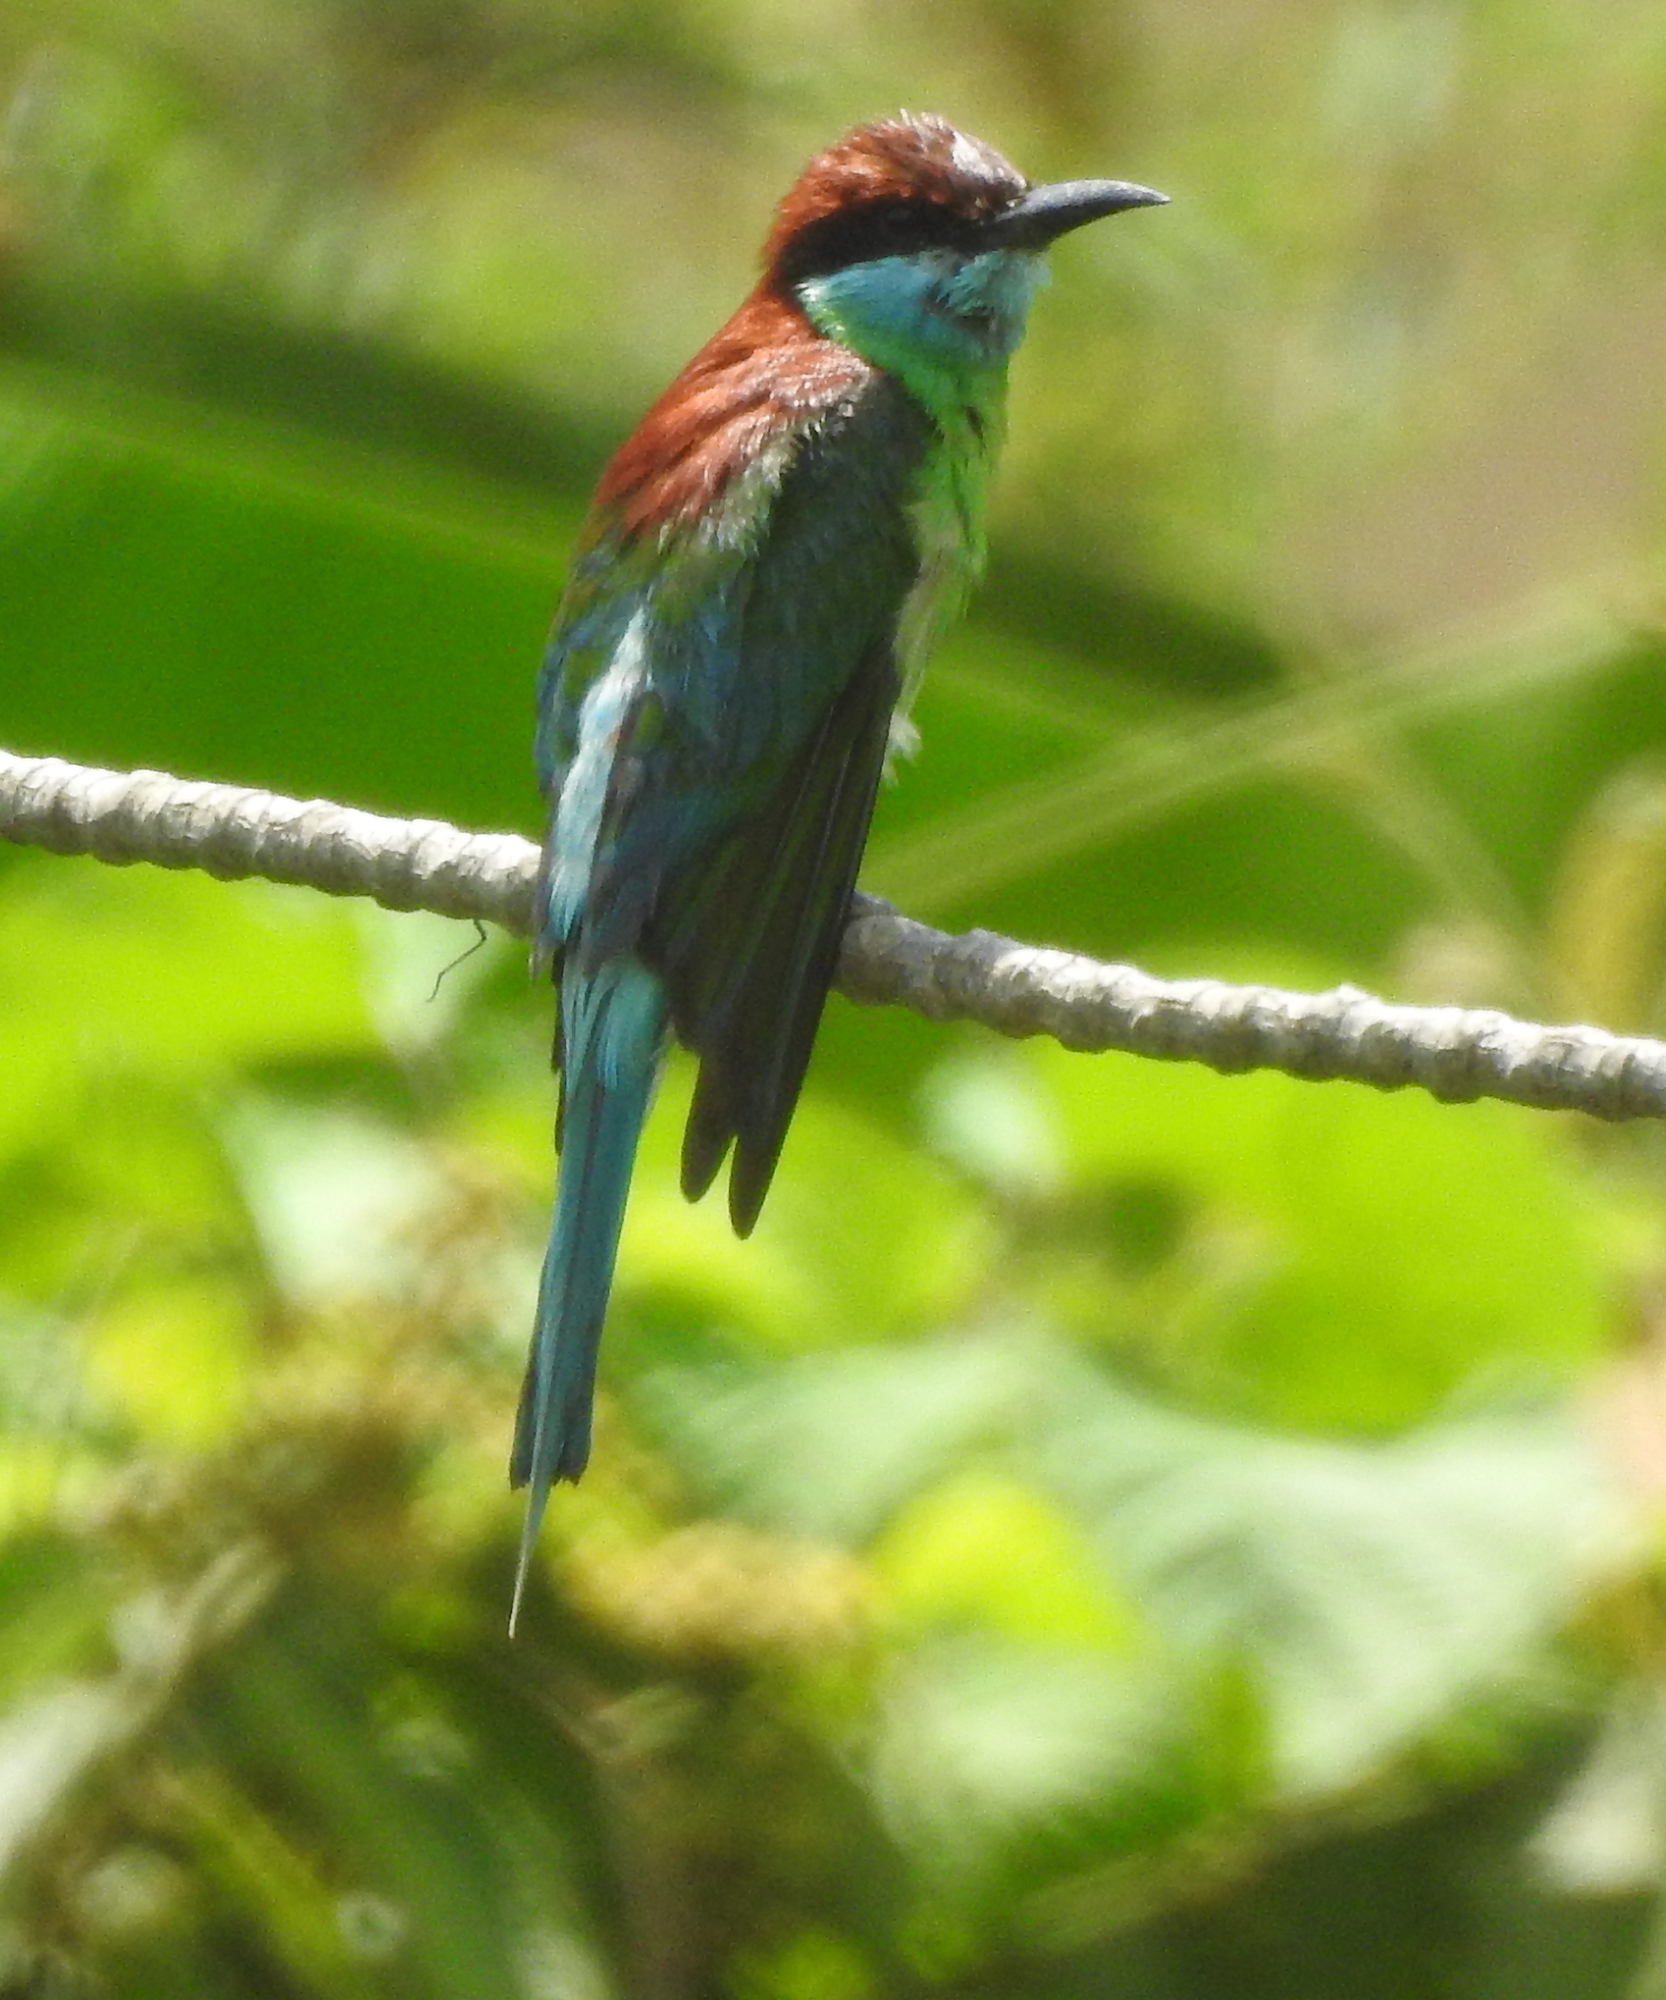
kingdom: Animalia
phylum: Chordata
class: Aves
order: Coraciiformes
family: Meropidae
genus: Merops
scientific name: Merops viridis
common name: Blue-throated bee-eater
